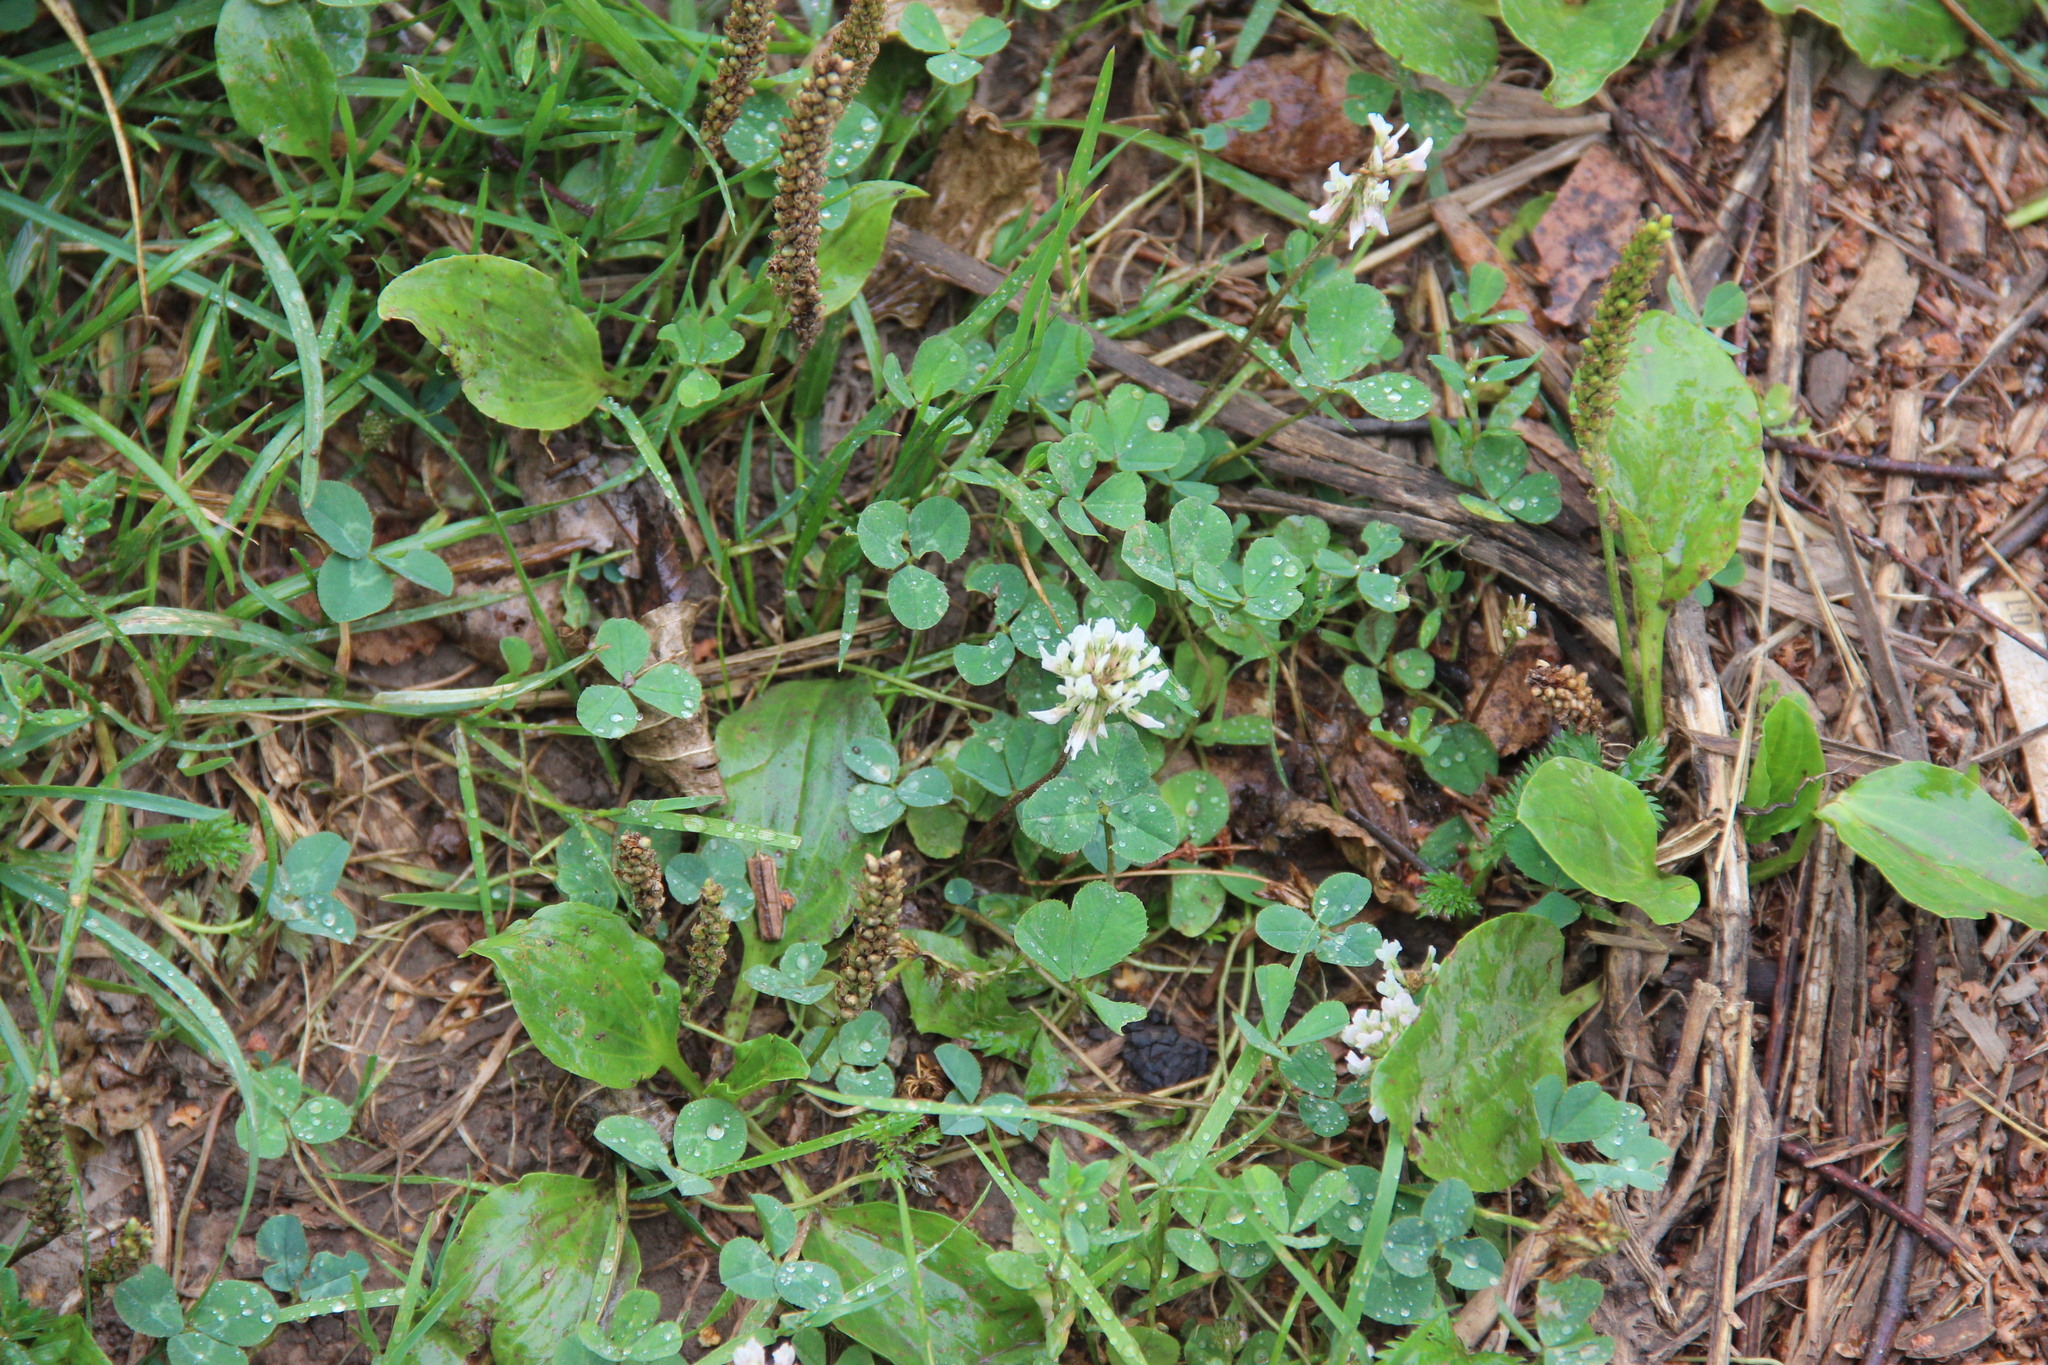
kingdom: Plantae
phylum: Tracheophyta
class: Magnoliopsida
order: Fabales
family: Fabaceae
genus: Trifolium
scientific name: Trifolium repens
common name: White clover
